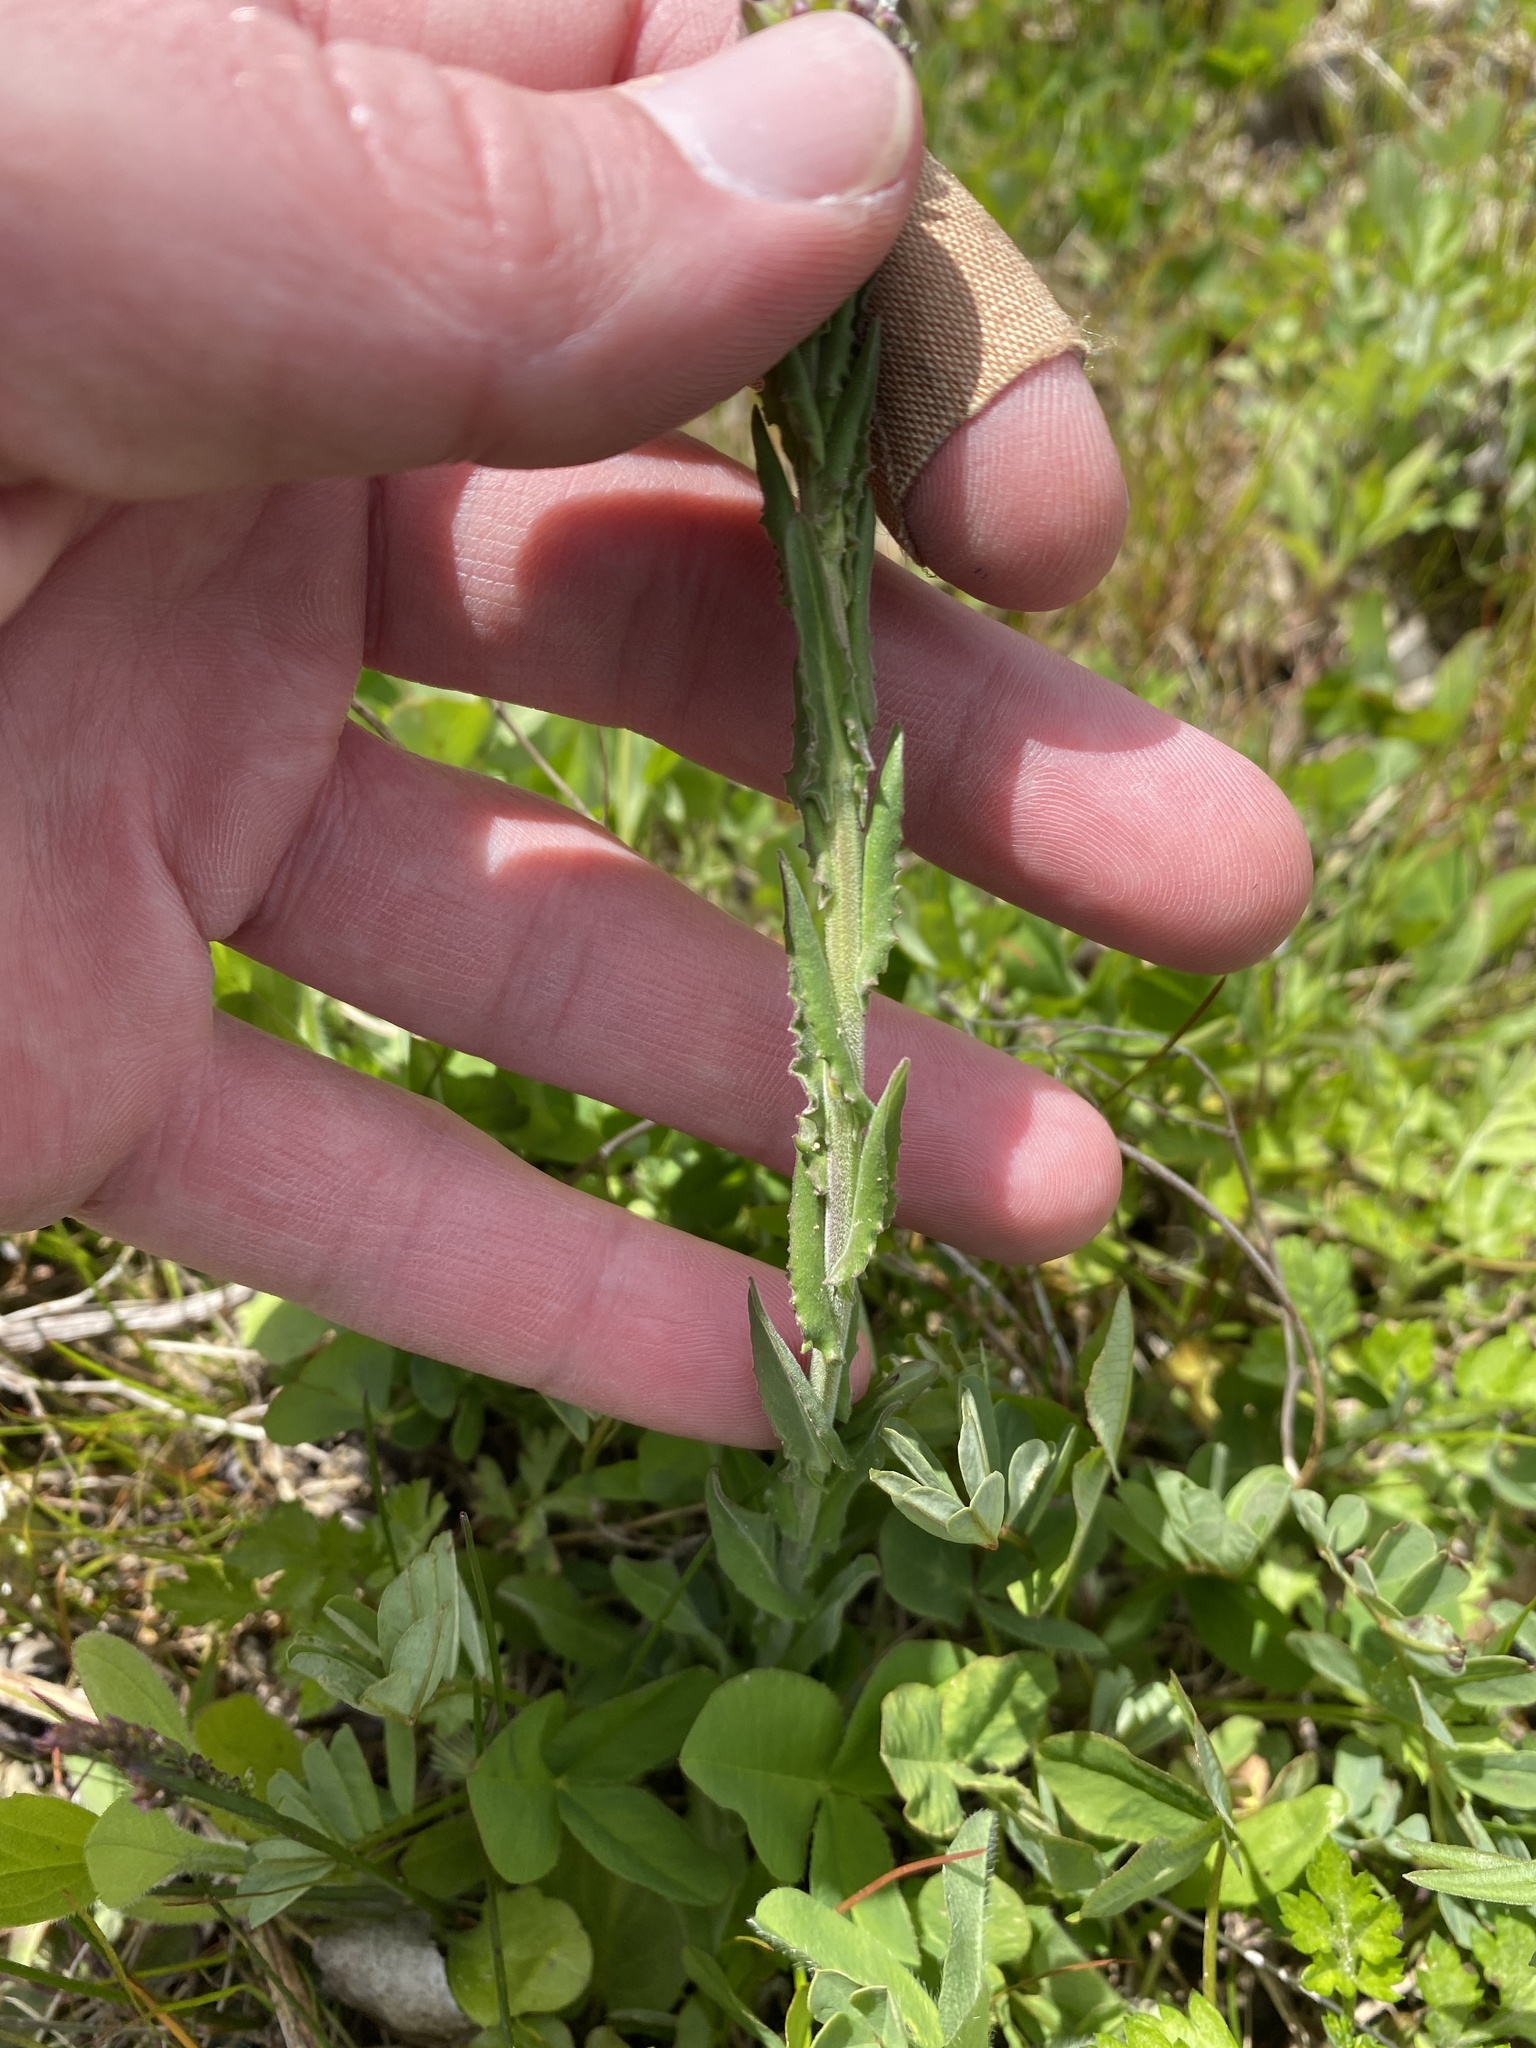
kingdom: Plantae
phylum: Tracheophyta
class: Magnoliopsida
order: Brassicales
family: Brassicaceae
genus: Lepidium
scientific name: Lepidium campestre
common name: Field pepperwort
